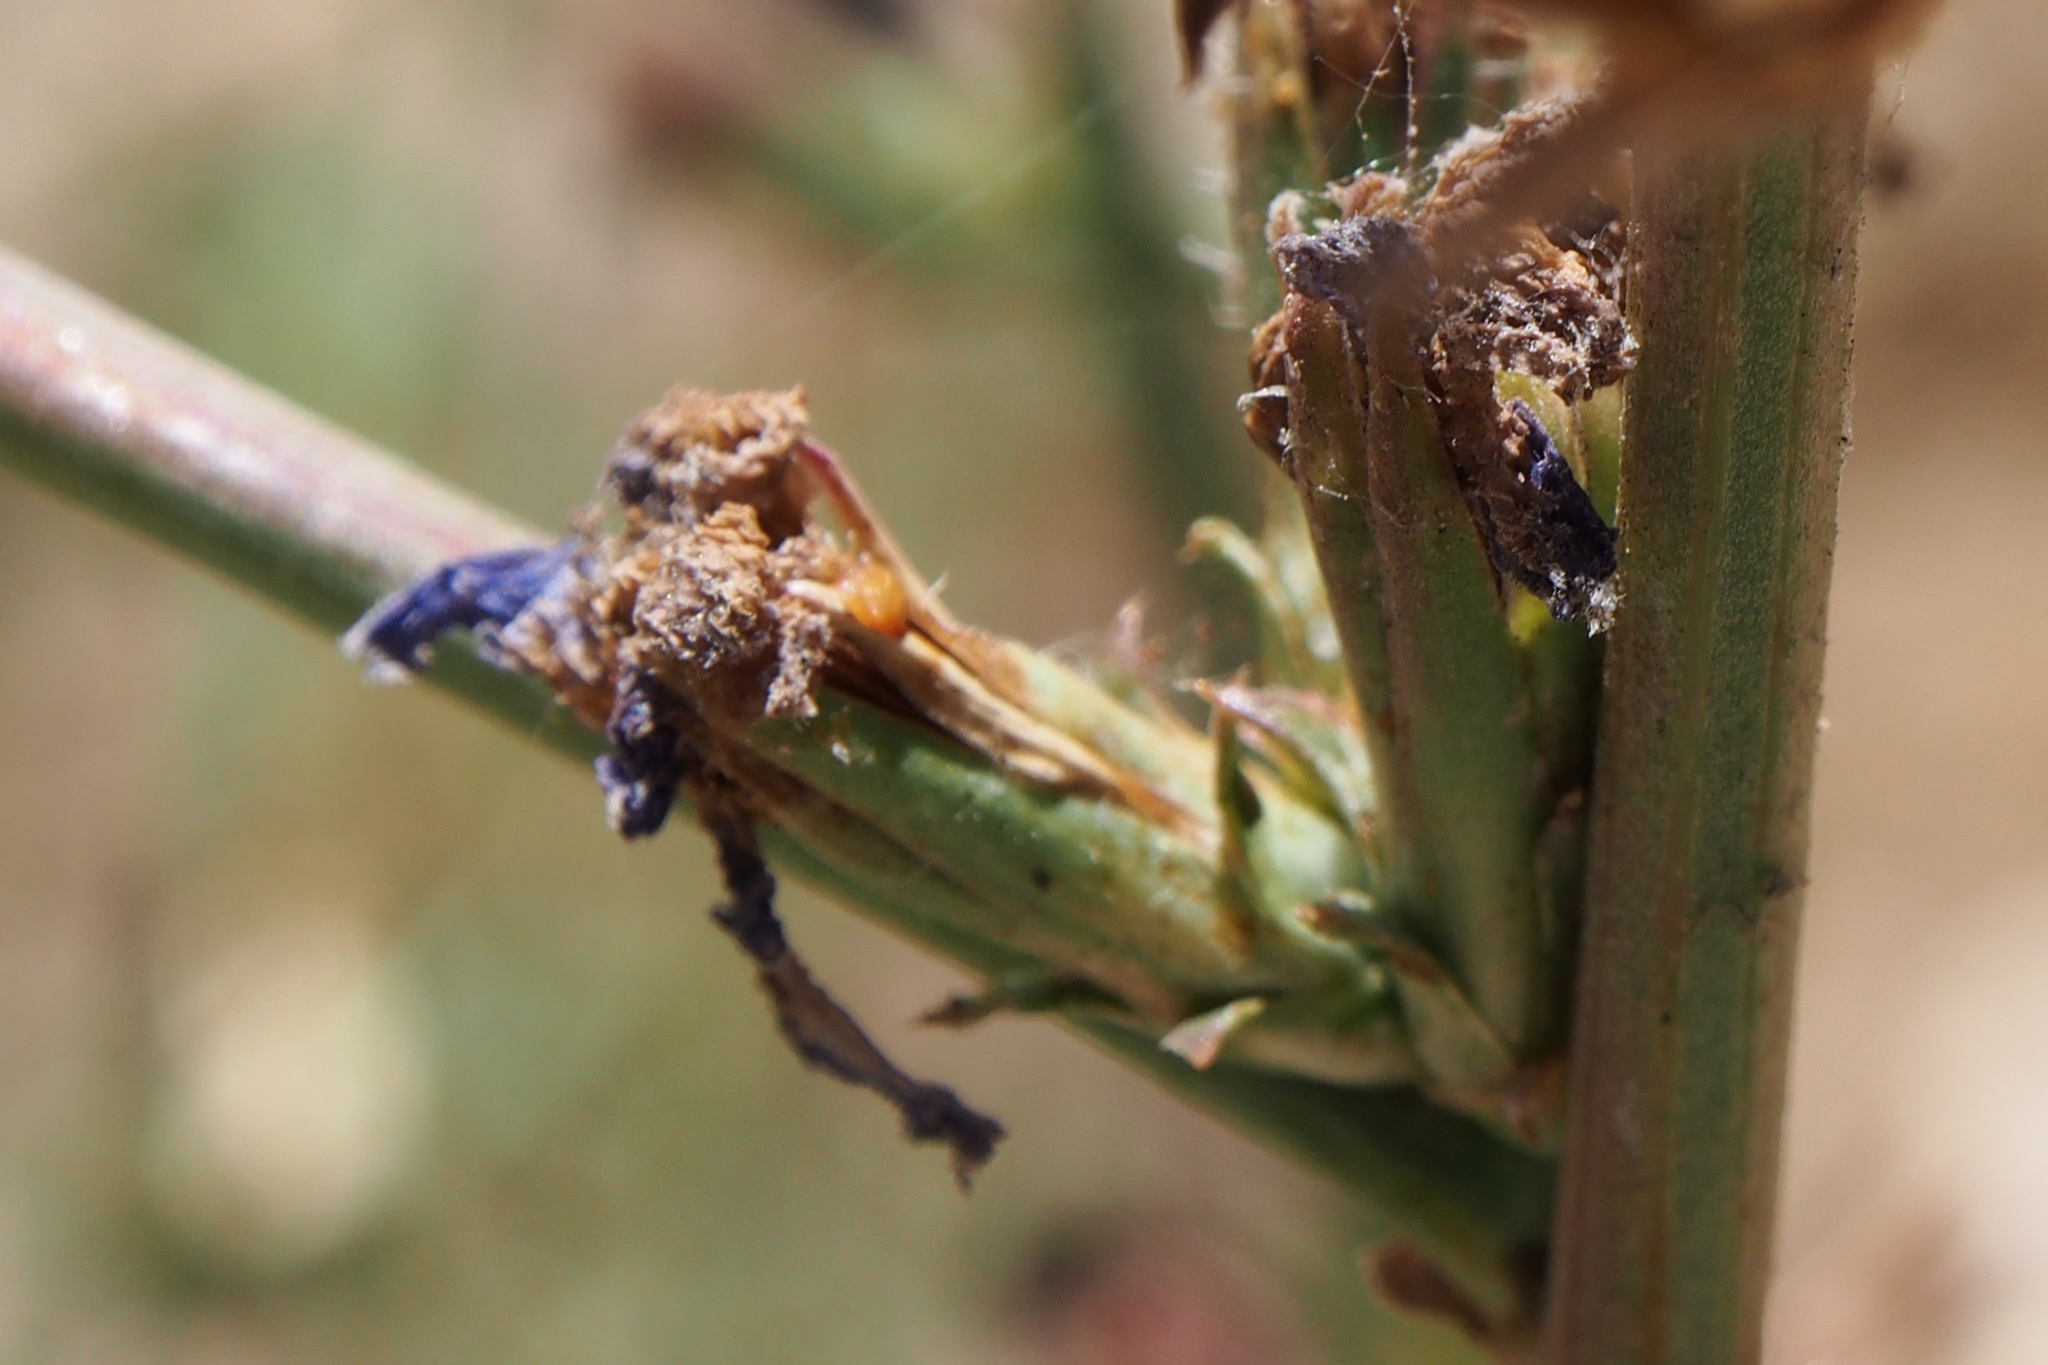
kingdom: Plantae
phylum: Tracheophyta
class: Magnoliopsida
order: Asterales
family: Asteraceae
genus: Cichorium
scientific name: Cichorium intybus
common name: Chicory
